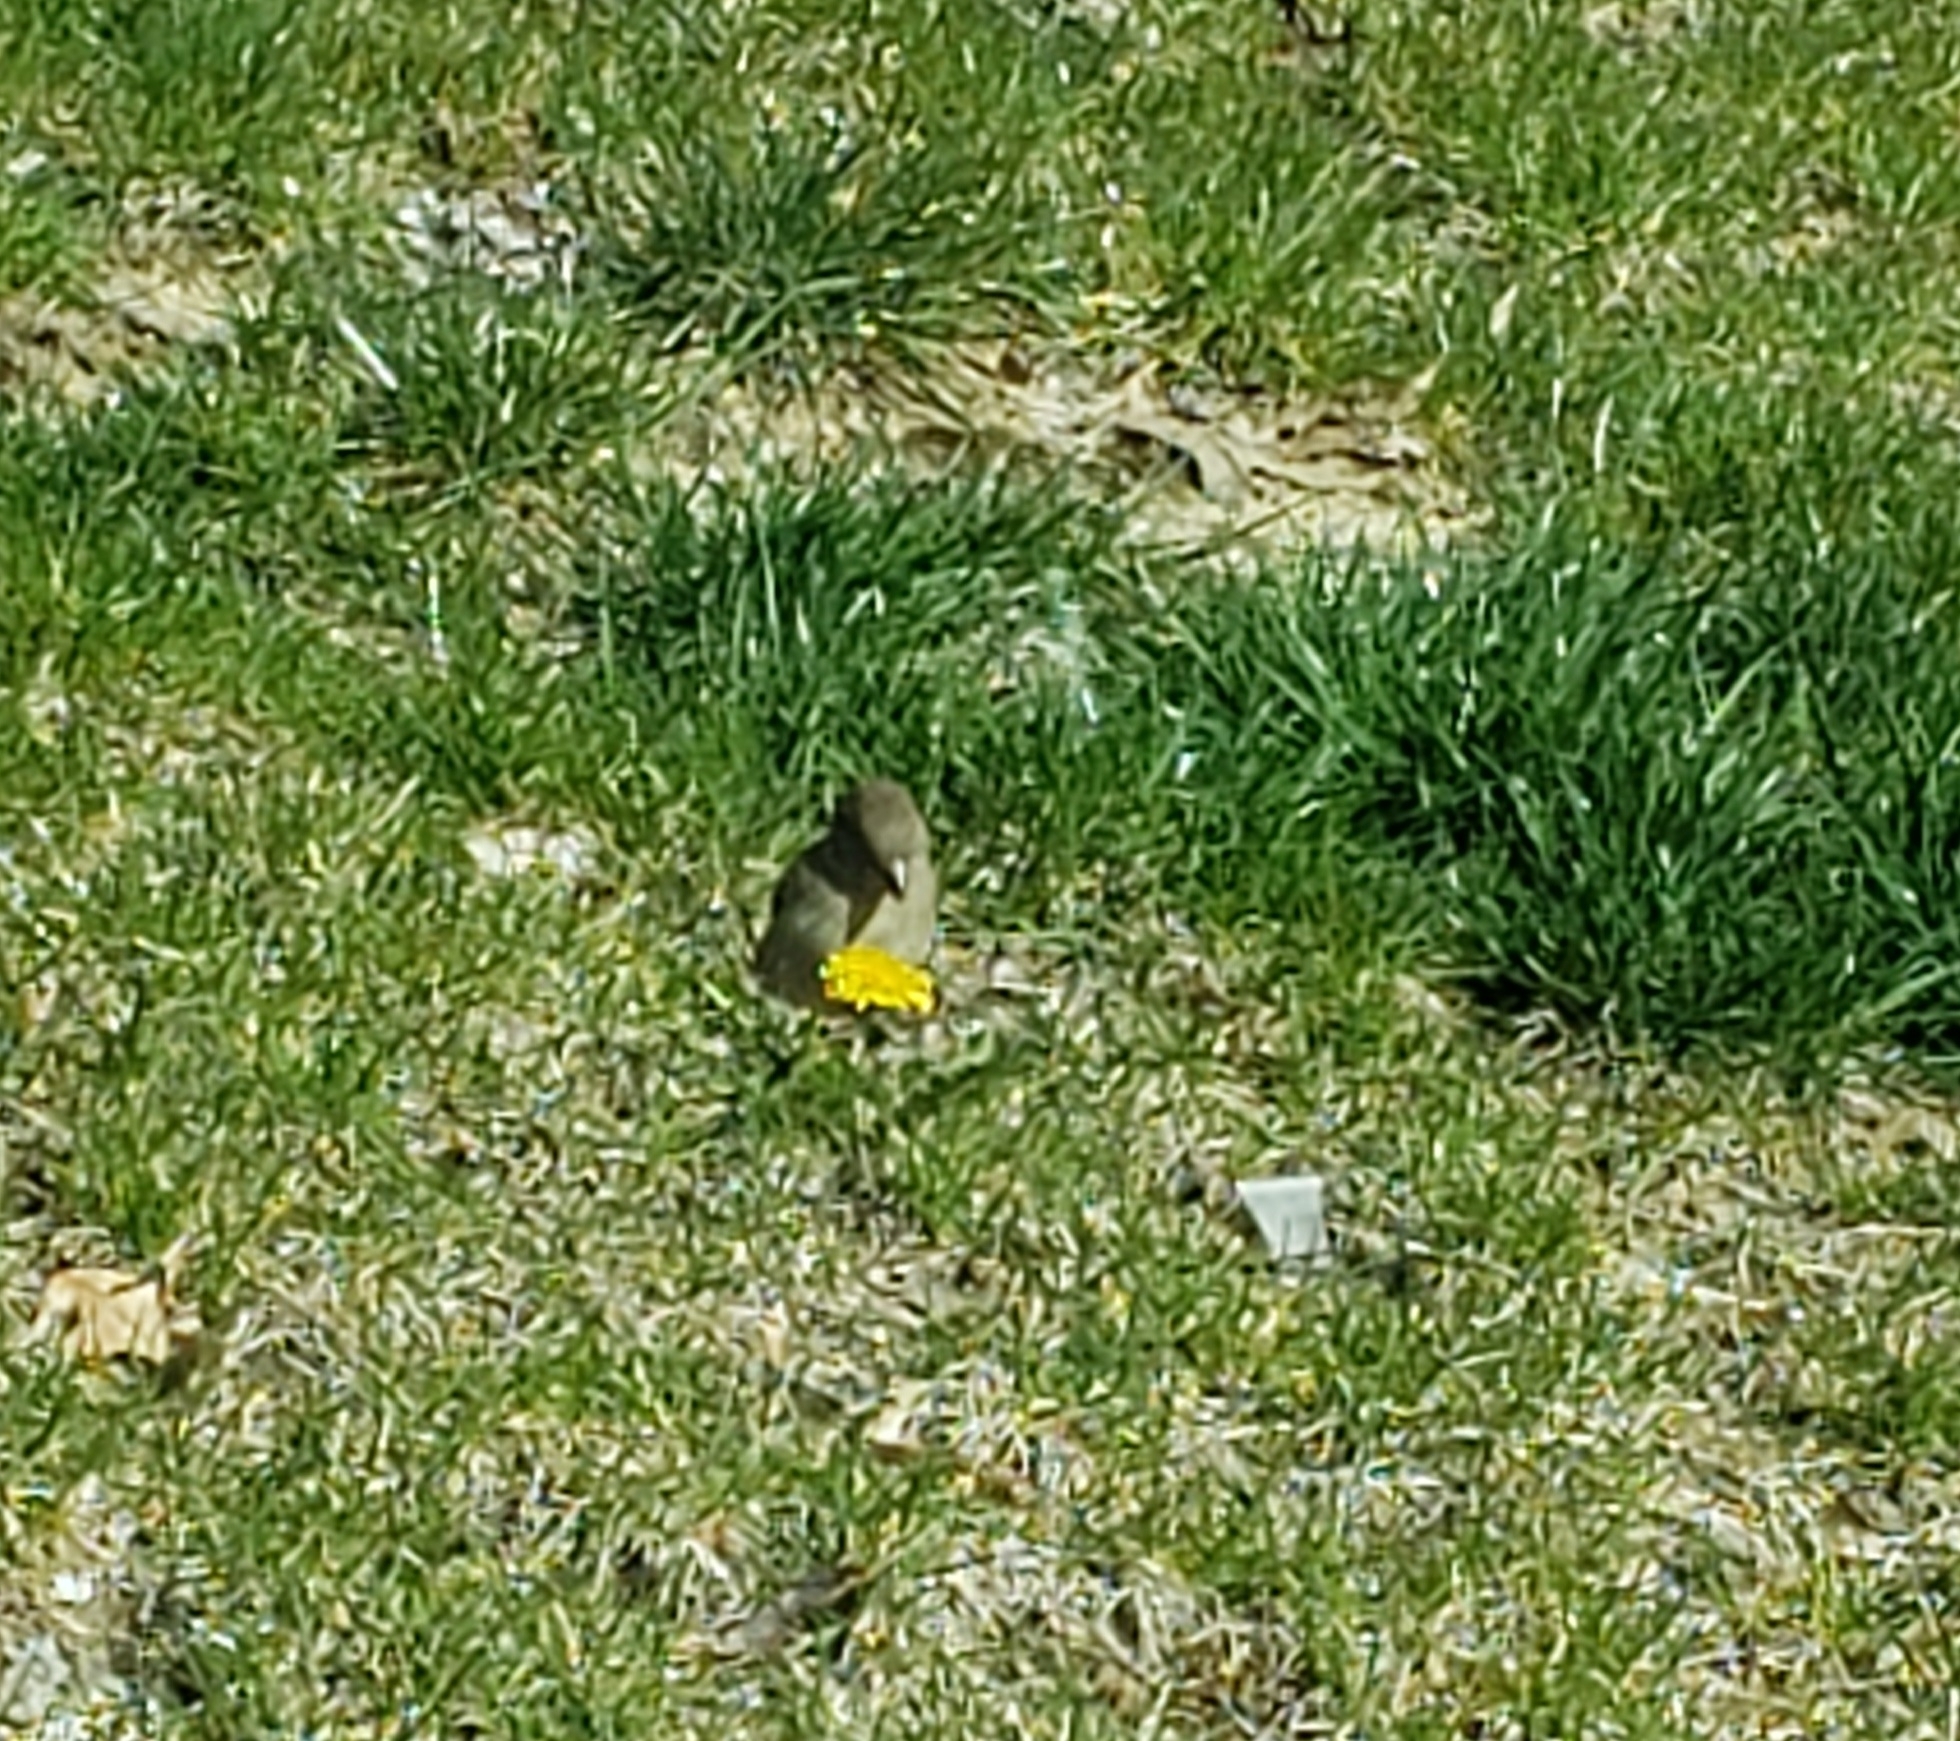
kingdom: Animalia
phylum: Chordata
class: Aves
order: Passeriformes
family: Passeridae
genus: Passer
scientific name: Passer domesticus
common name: House sparrow
